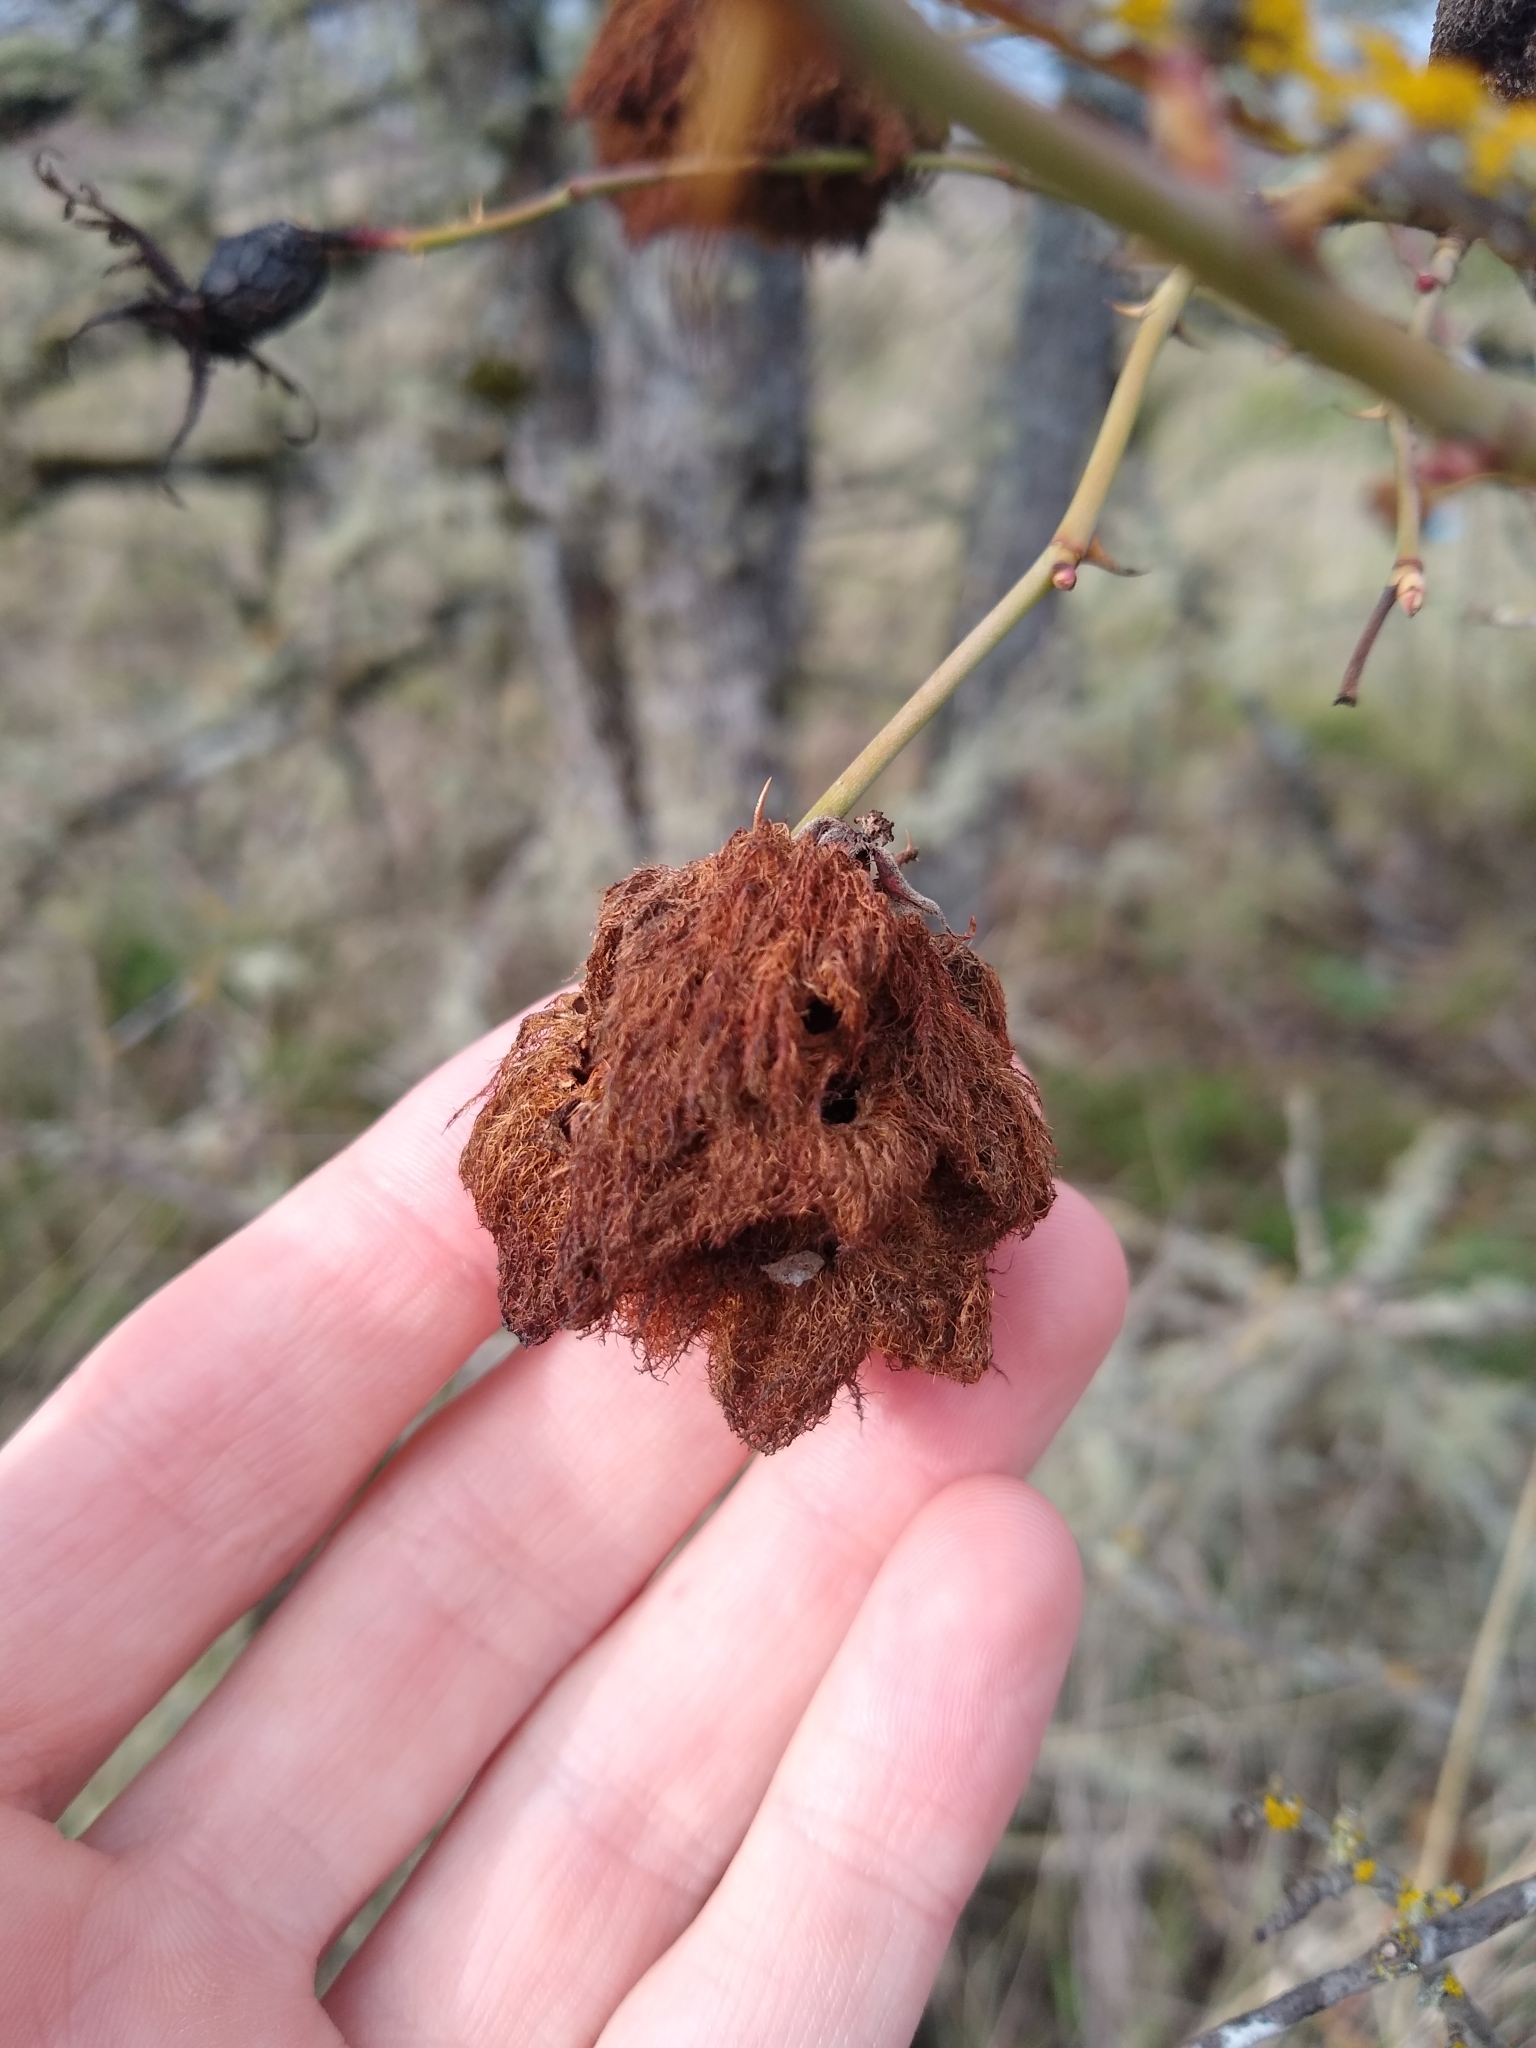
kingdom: Animalia
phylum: Arthropoda
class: Insecta
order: Hymenoptera
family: Cynipidae
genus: Diplolepis
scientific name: Diplolepis rosae
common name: Bedeguar gall
